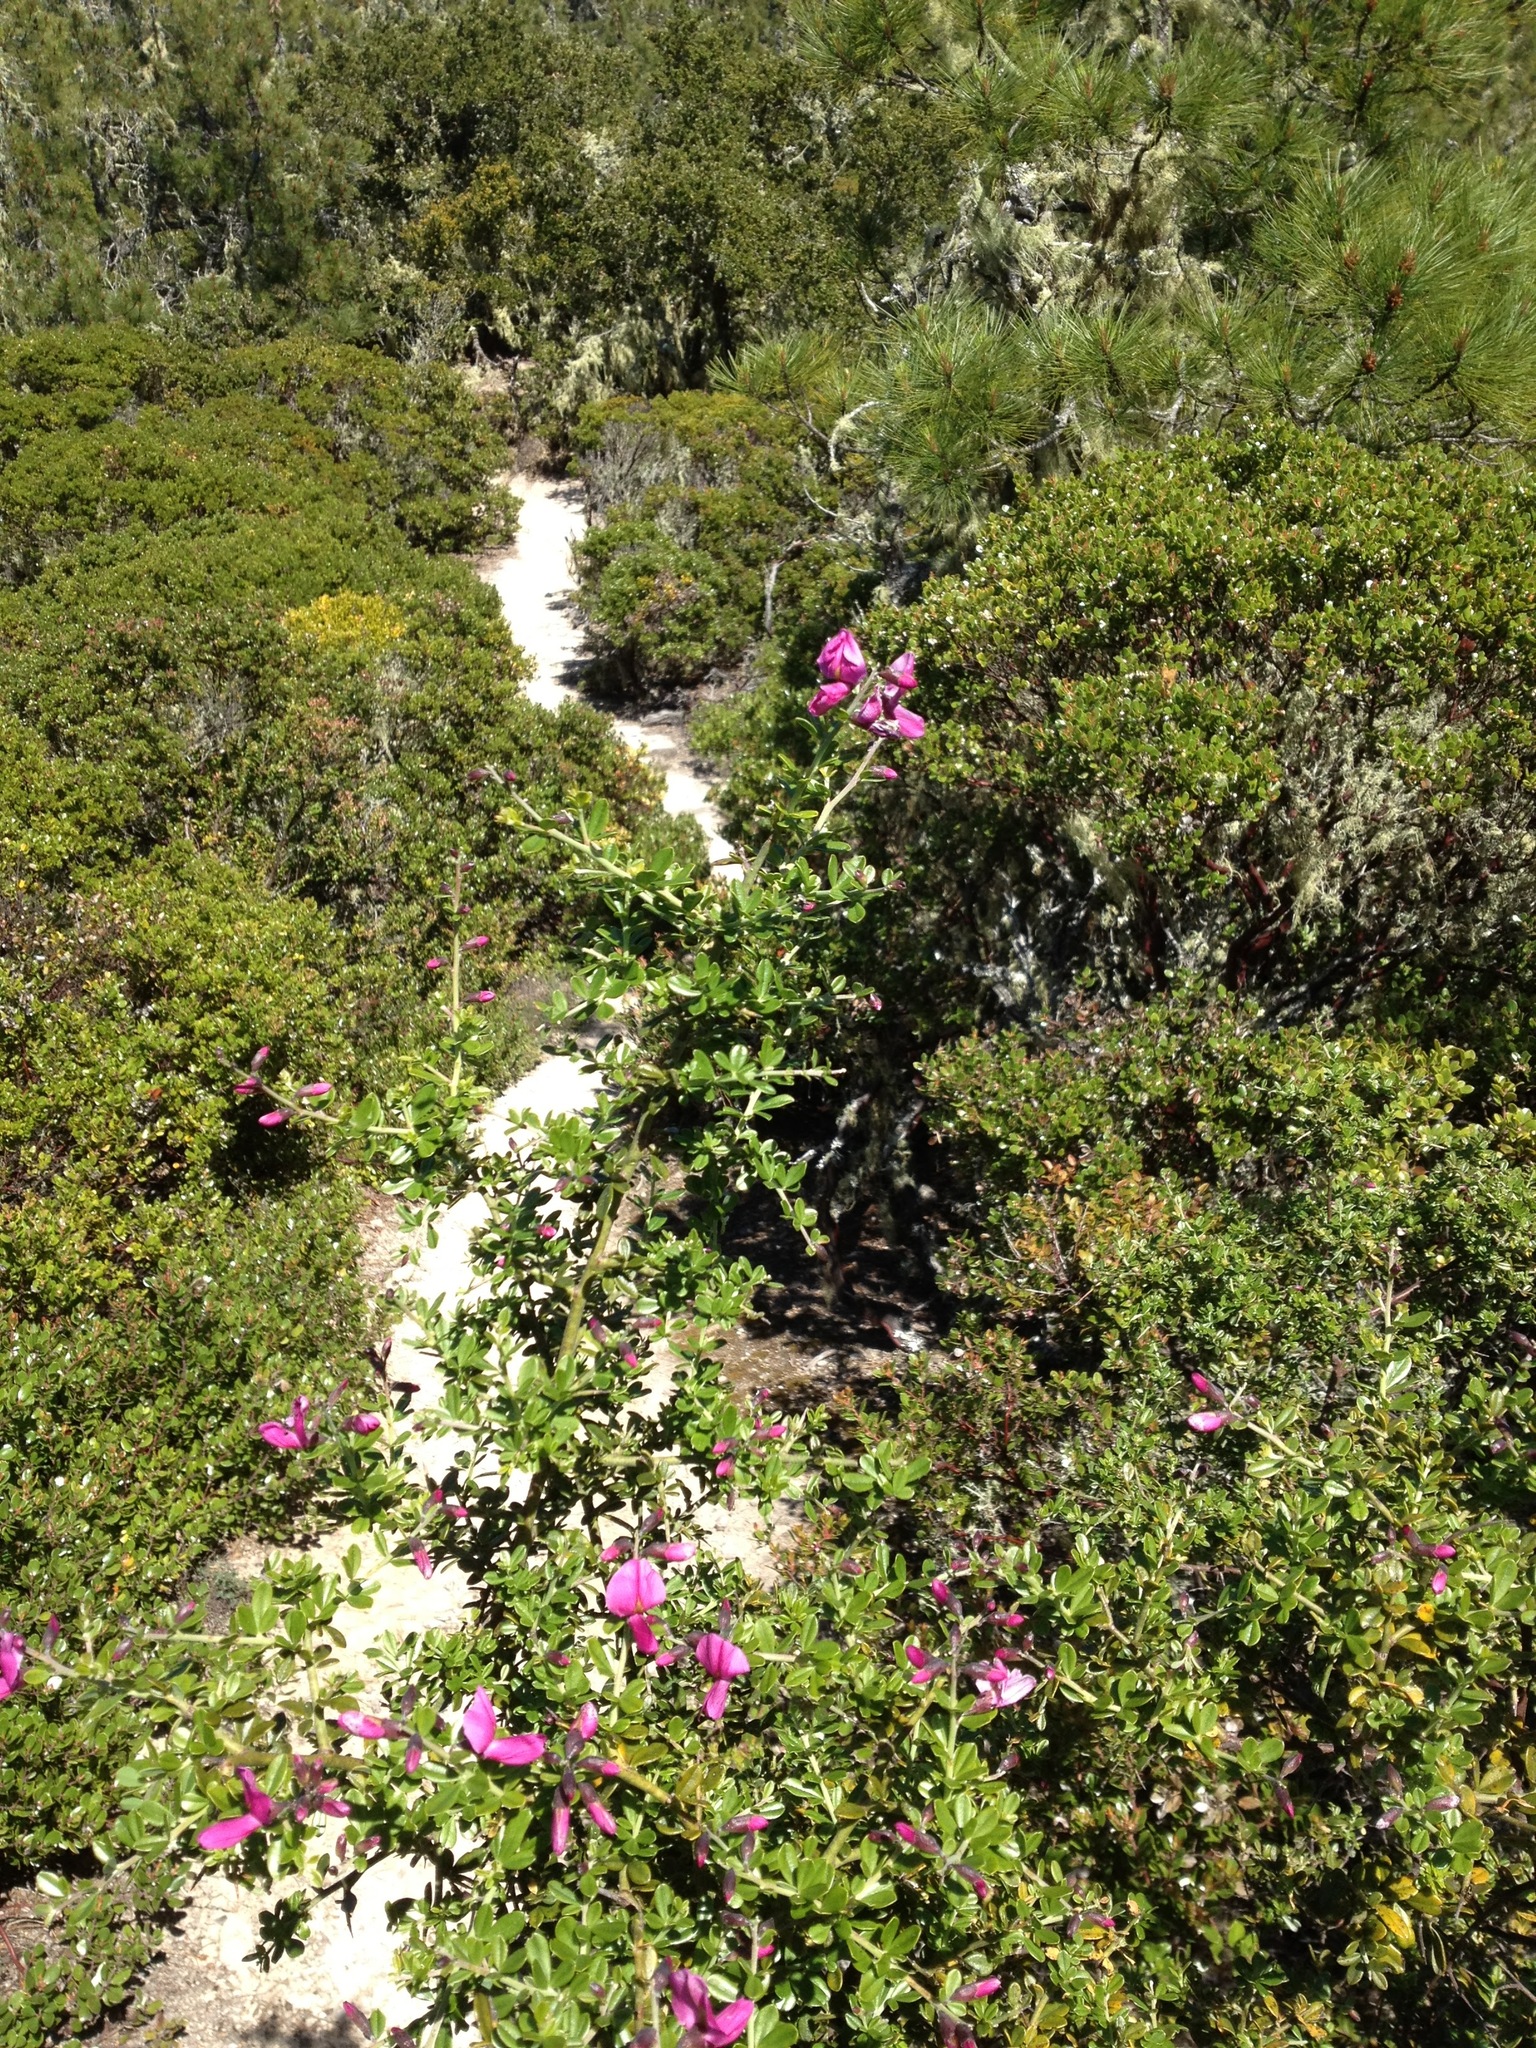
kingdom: Plantae
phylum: Tracheophyta
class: Magnoliopsida
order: Fabales
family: Fabaceae
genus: Pickeringia
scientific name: Pickeringia montana
